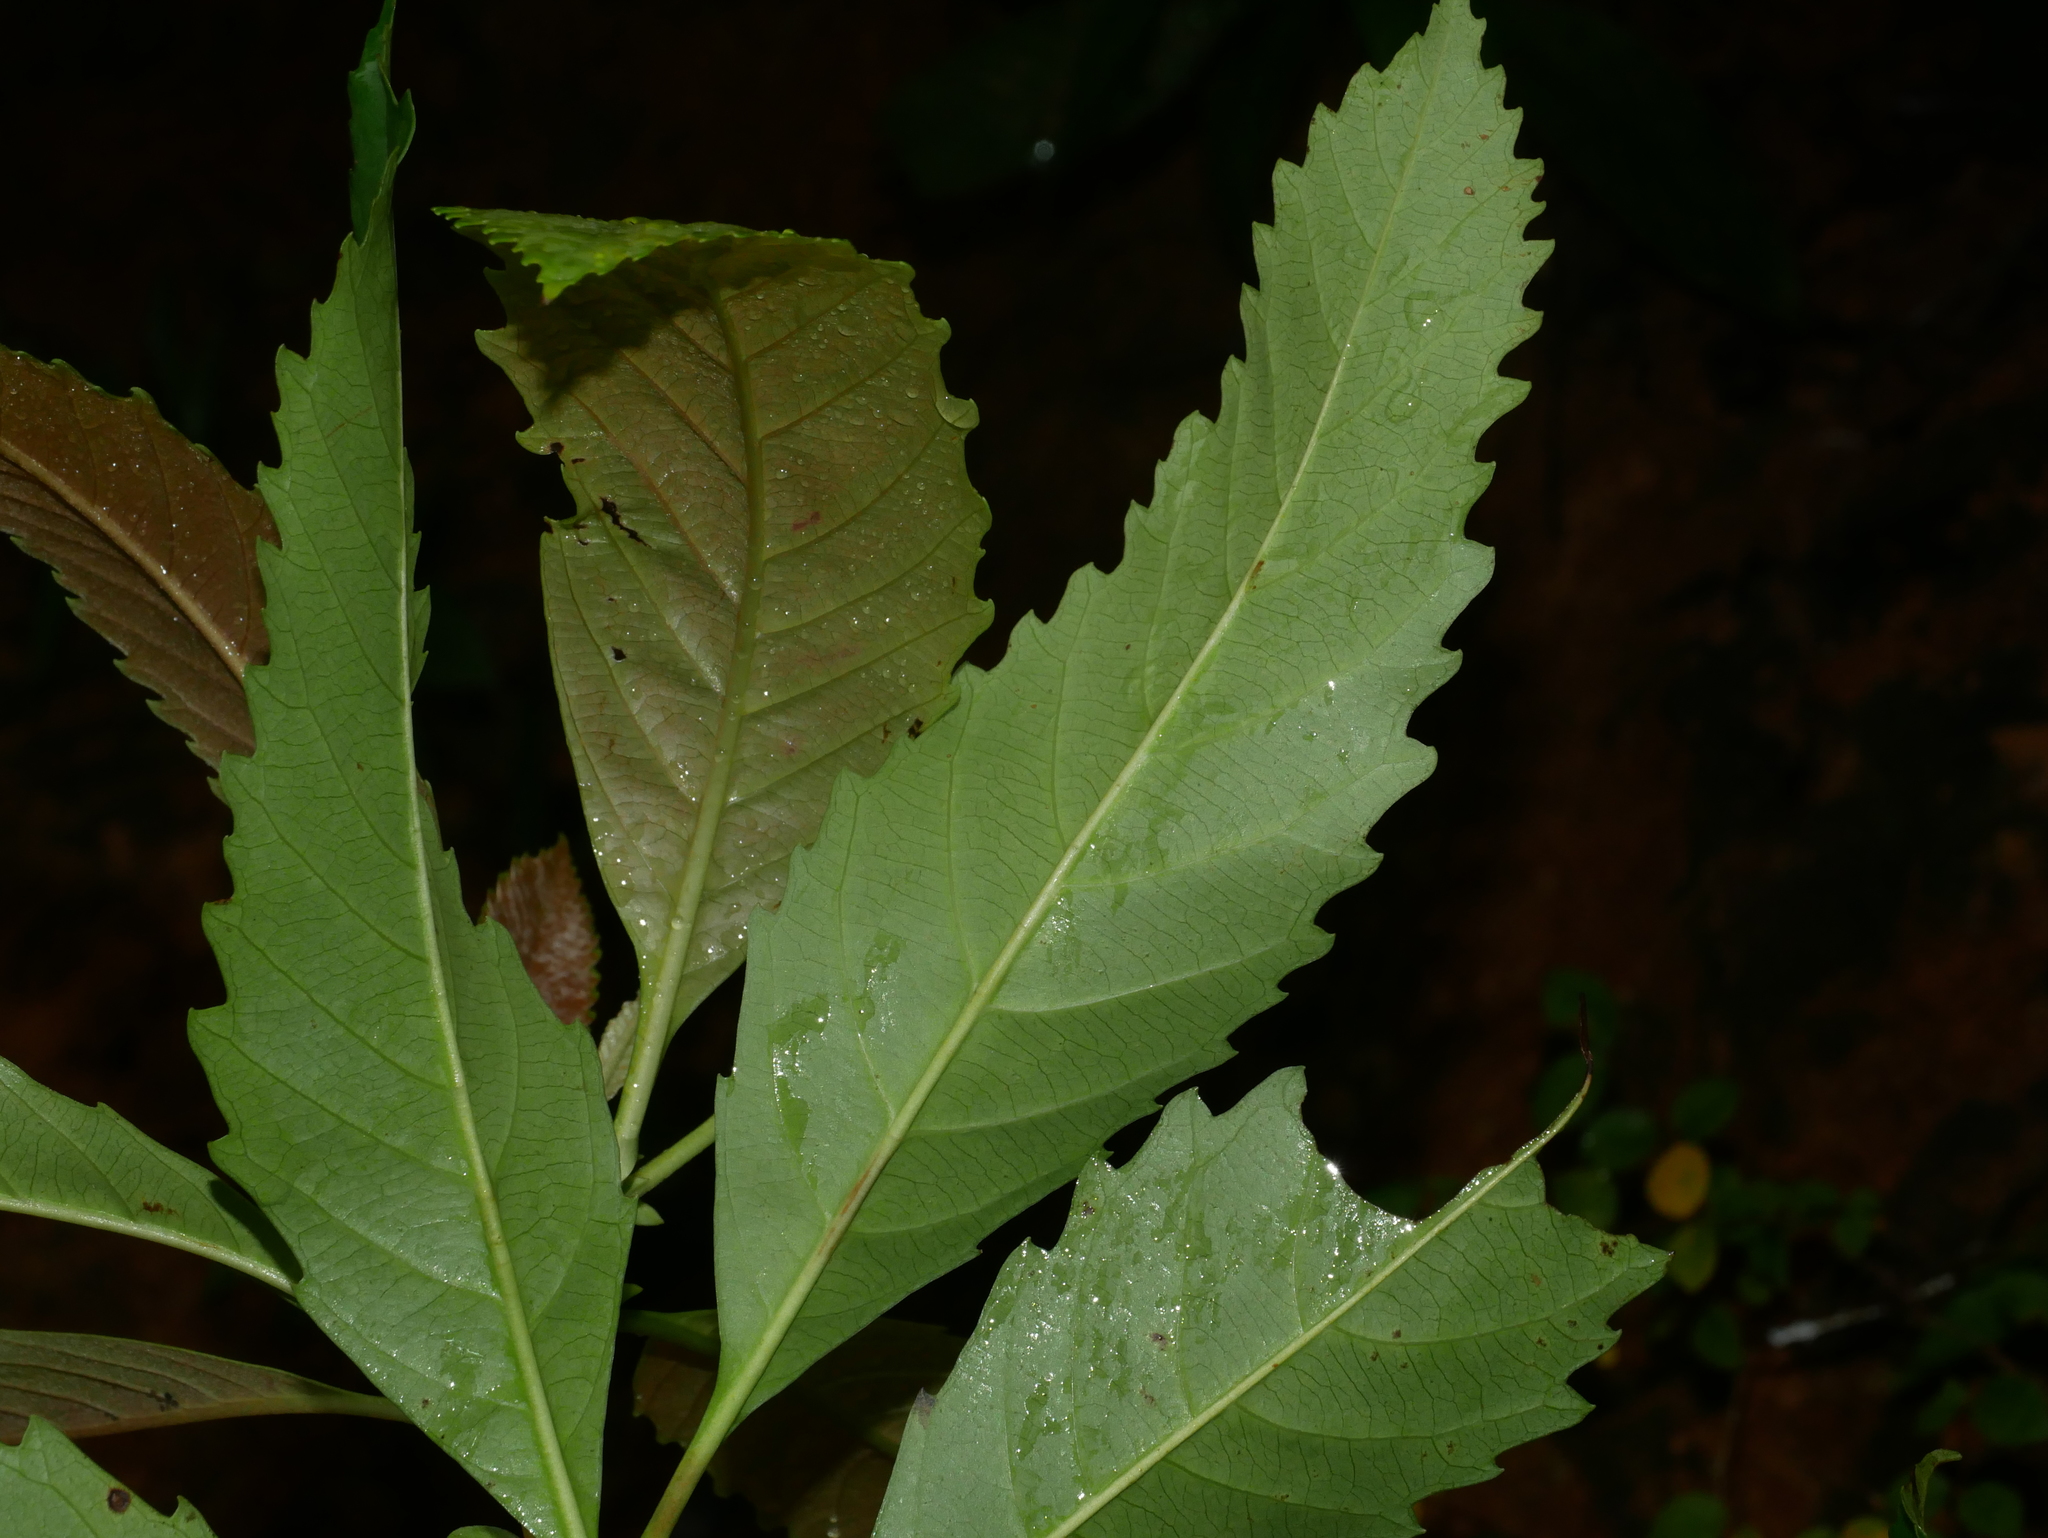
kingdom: Plantae
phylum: Tracheophyta
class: Magnoliopsida
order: Rosales
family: Rosaceae
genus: Rhaphiolepis
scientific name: Rhaphiolepis deflexa
